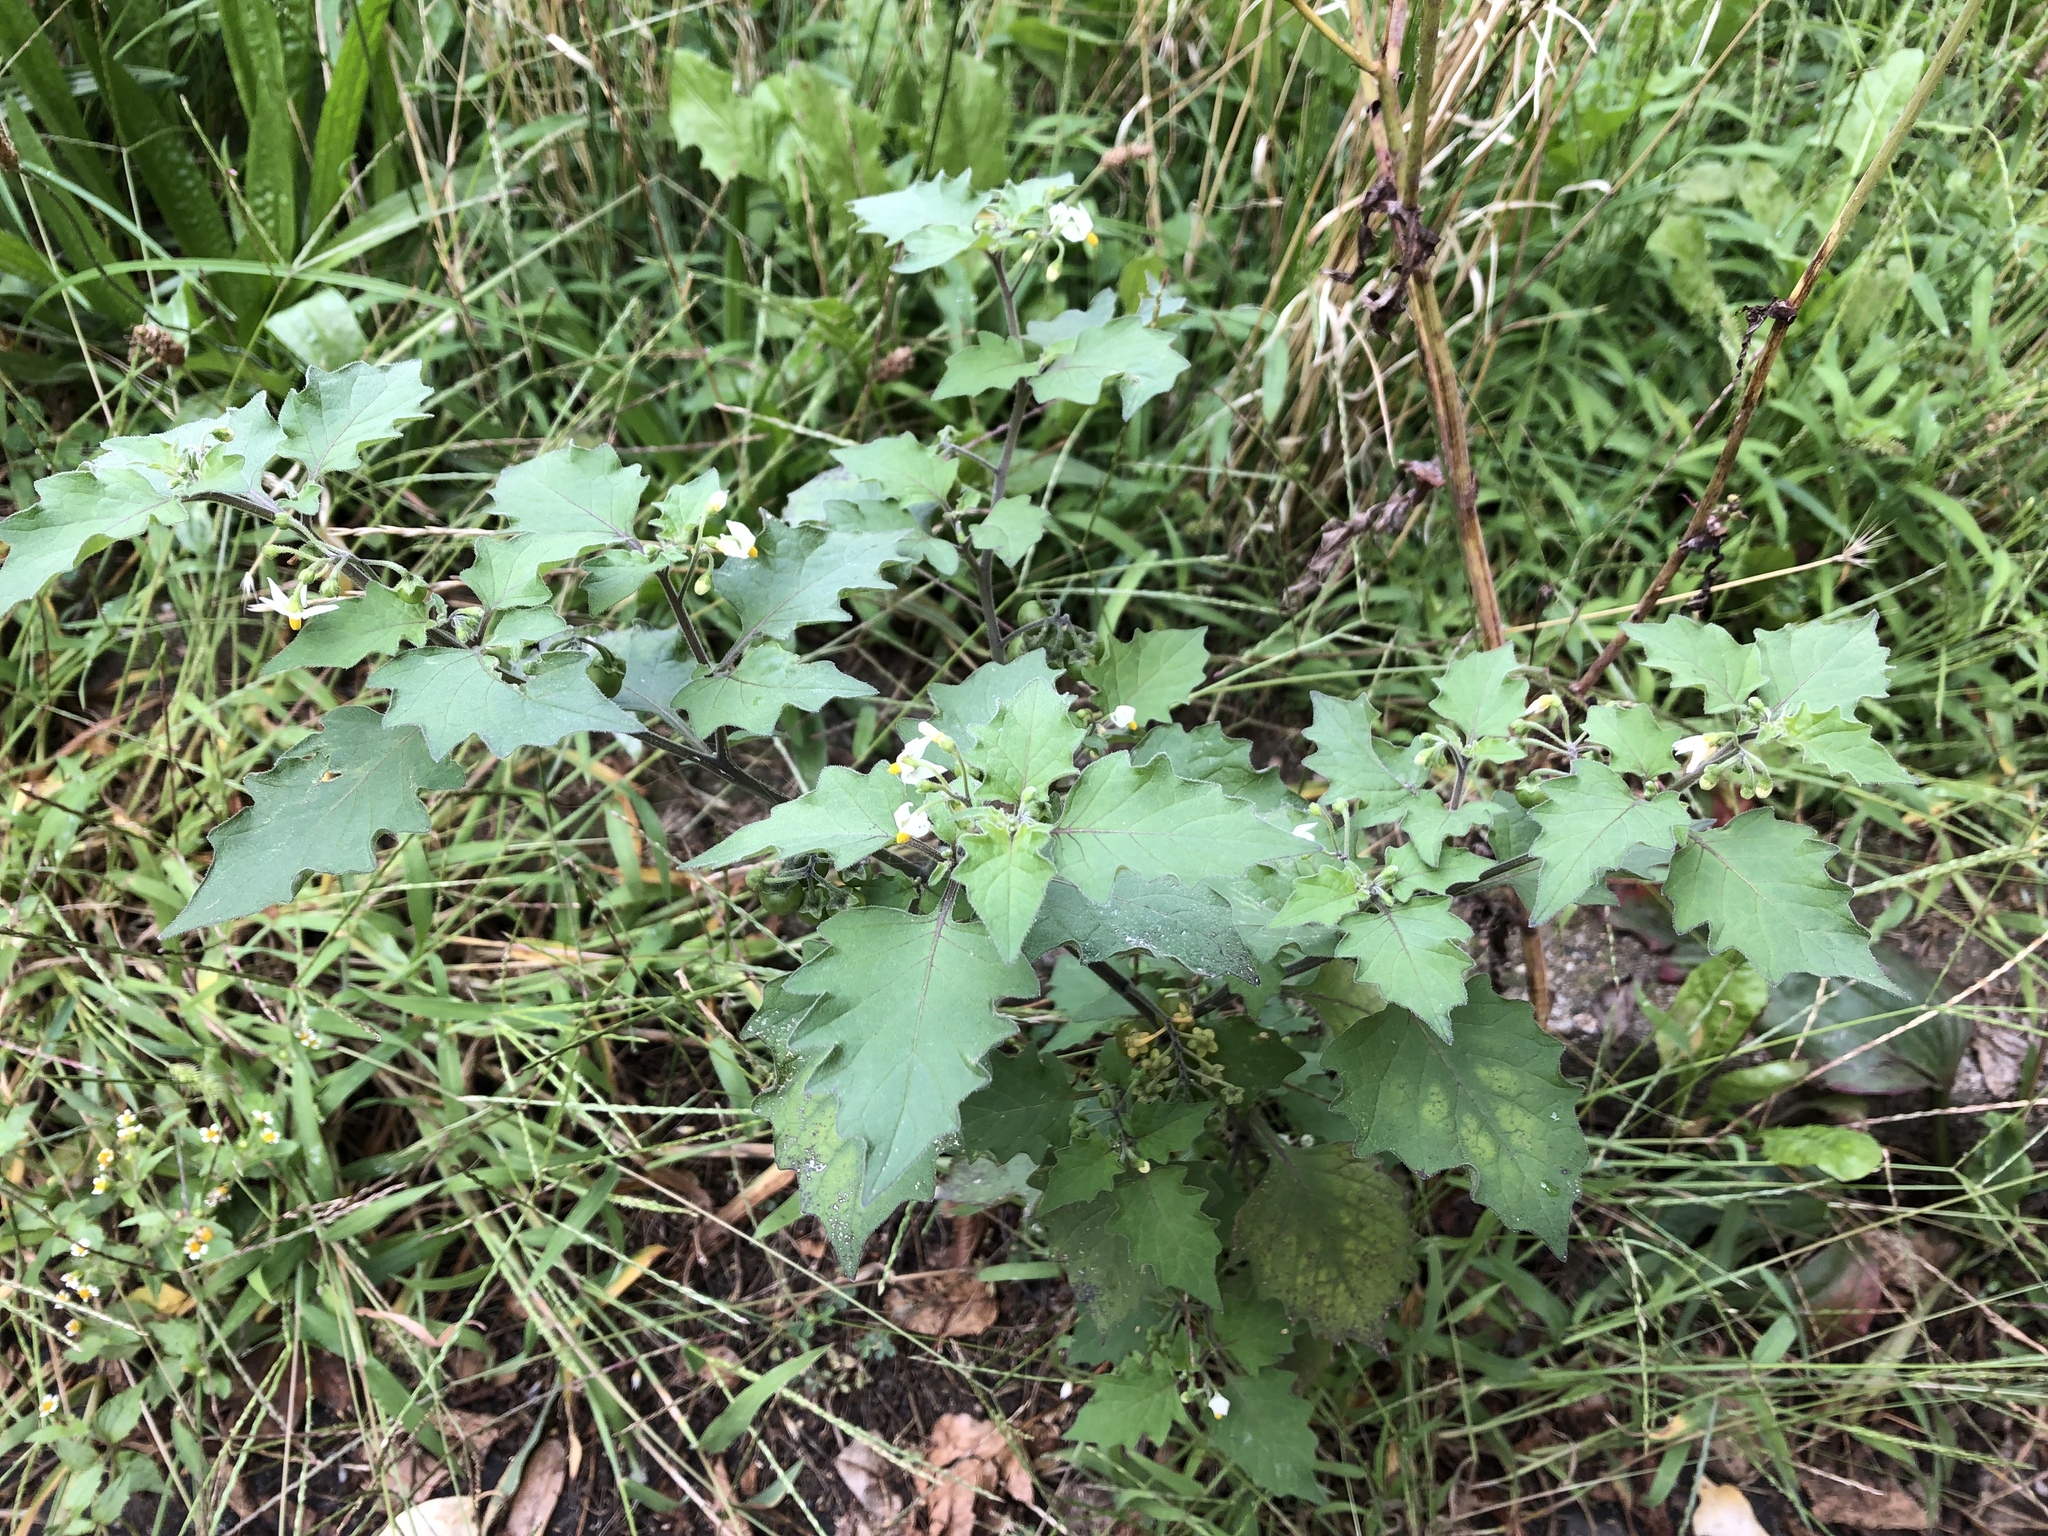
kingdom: Plantae
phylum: Tracheophyta
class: Magnoliopsida
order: Solanales
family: Solanaceae
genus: Solanum
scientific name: Solanum decipiens
